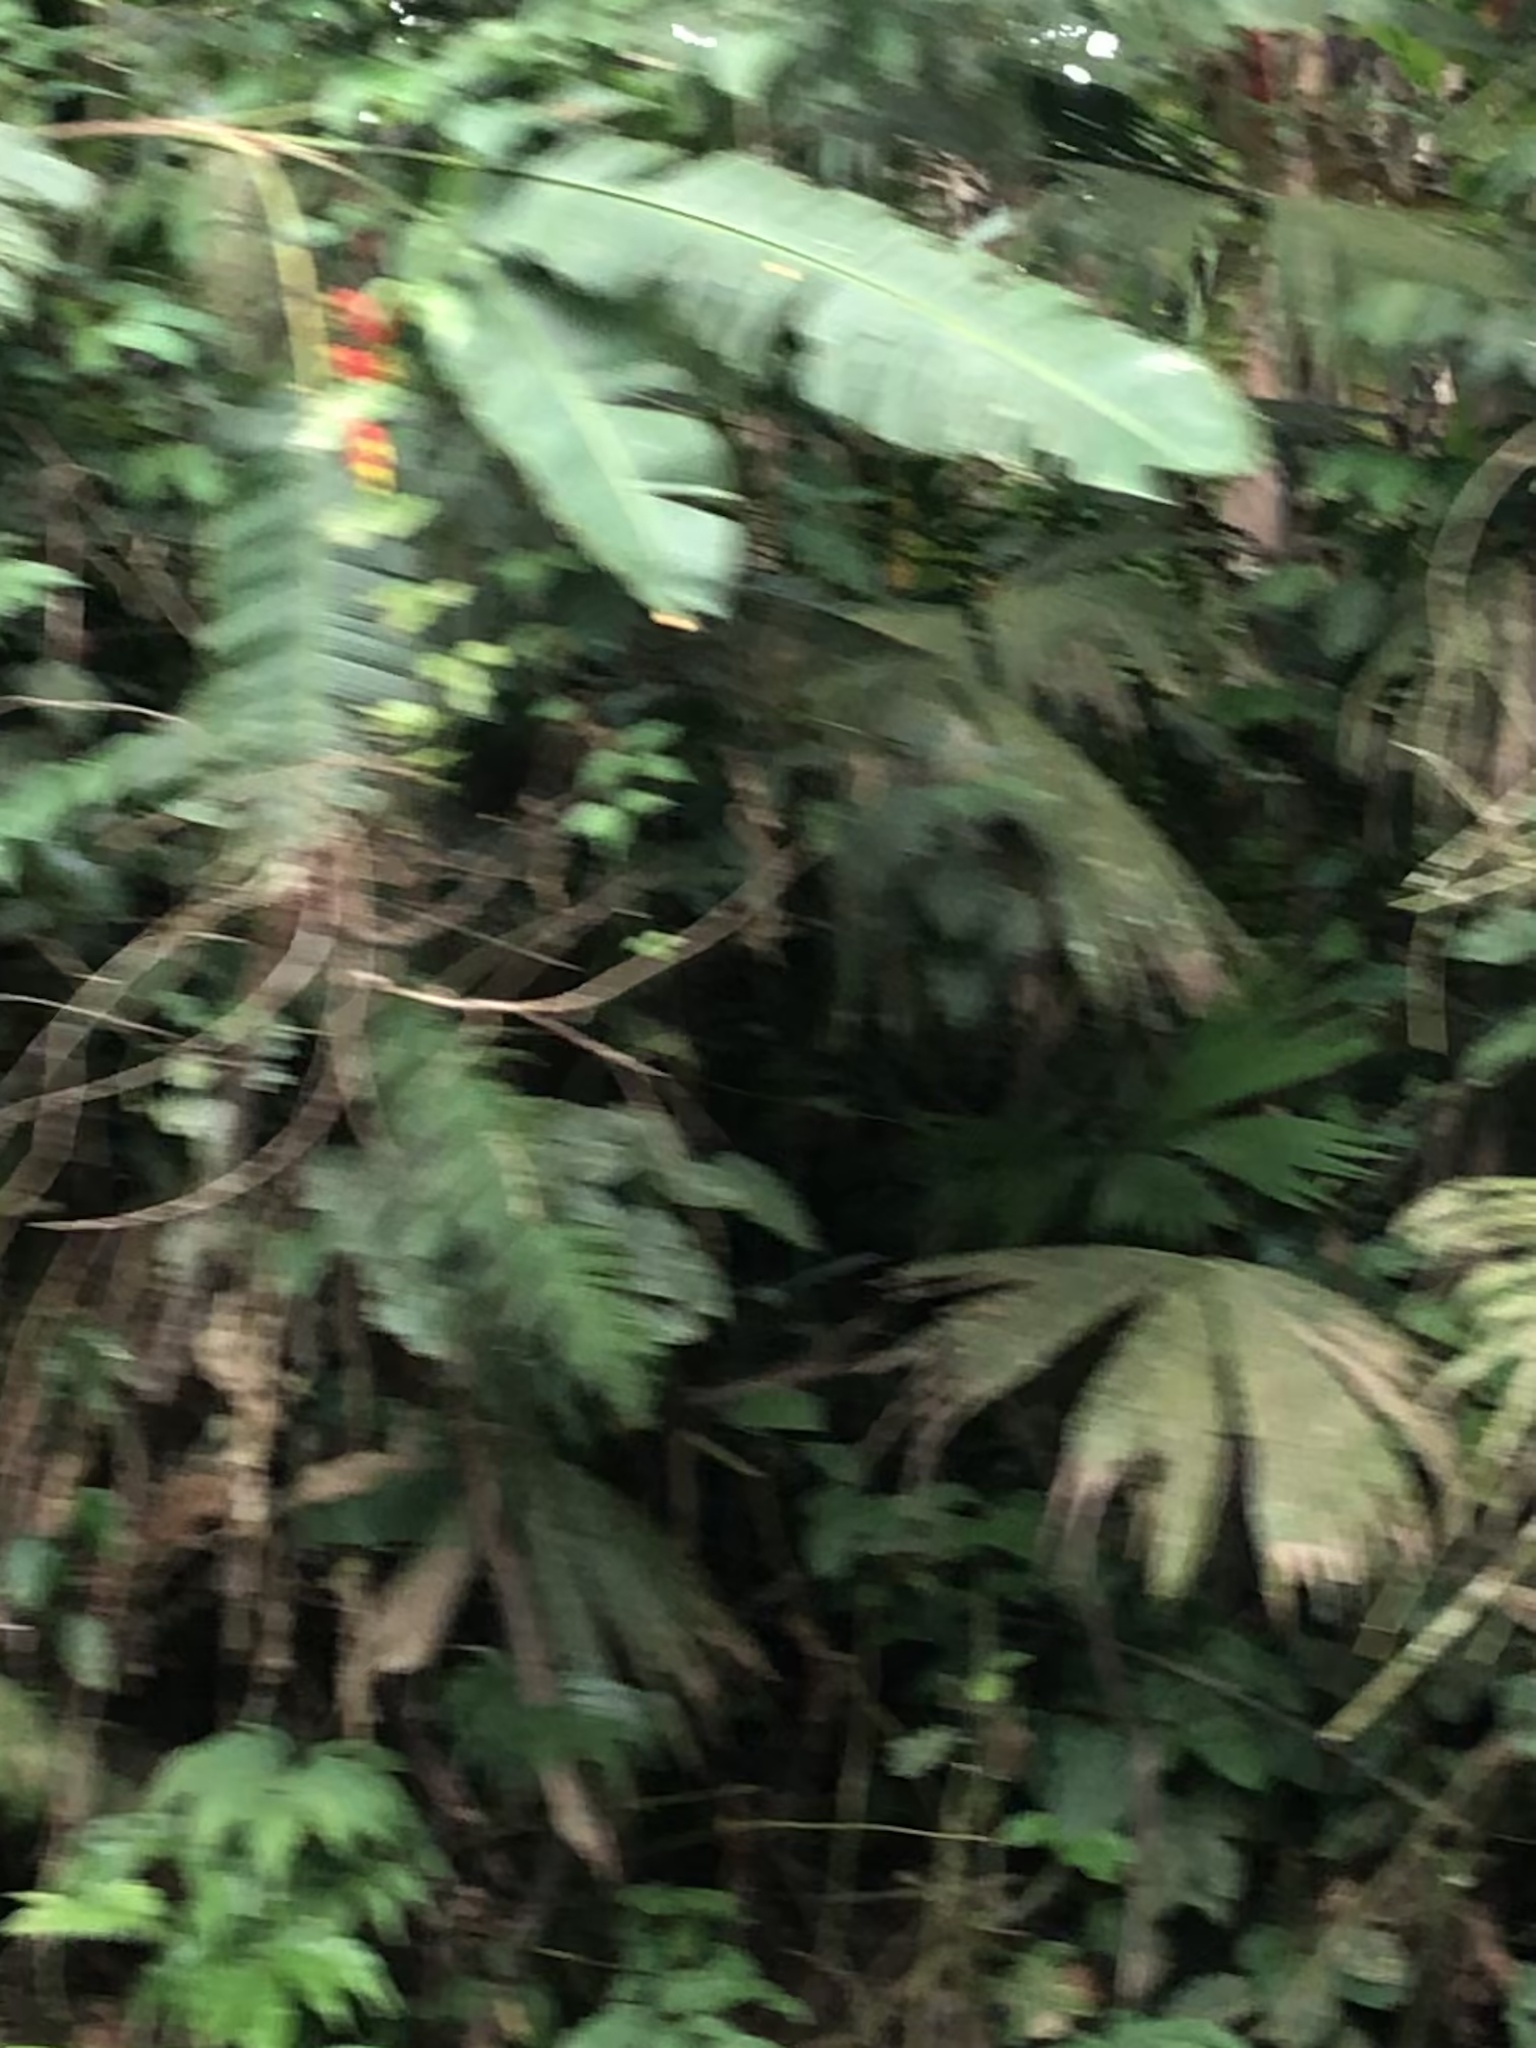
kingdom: Plantae
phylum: Tracheophyta
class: Liliopsida
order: Zingiberales
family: Heliconiaceae
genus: Heliconia
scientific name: Heliconia rostrata
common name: False bird of paradise
